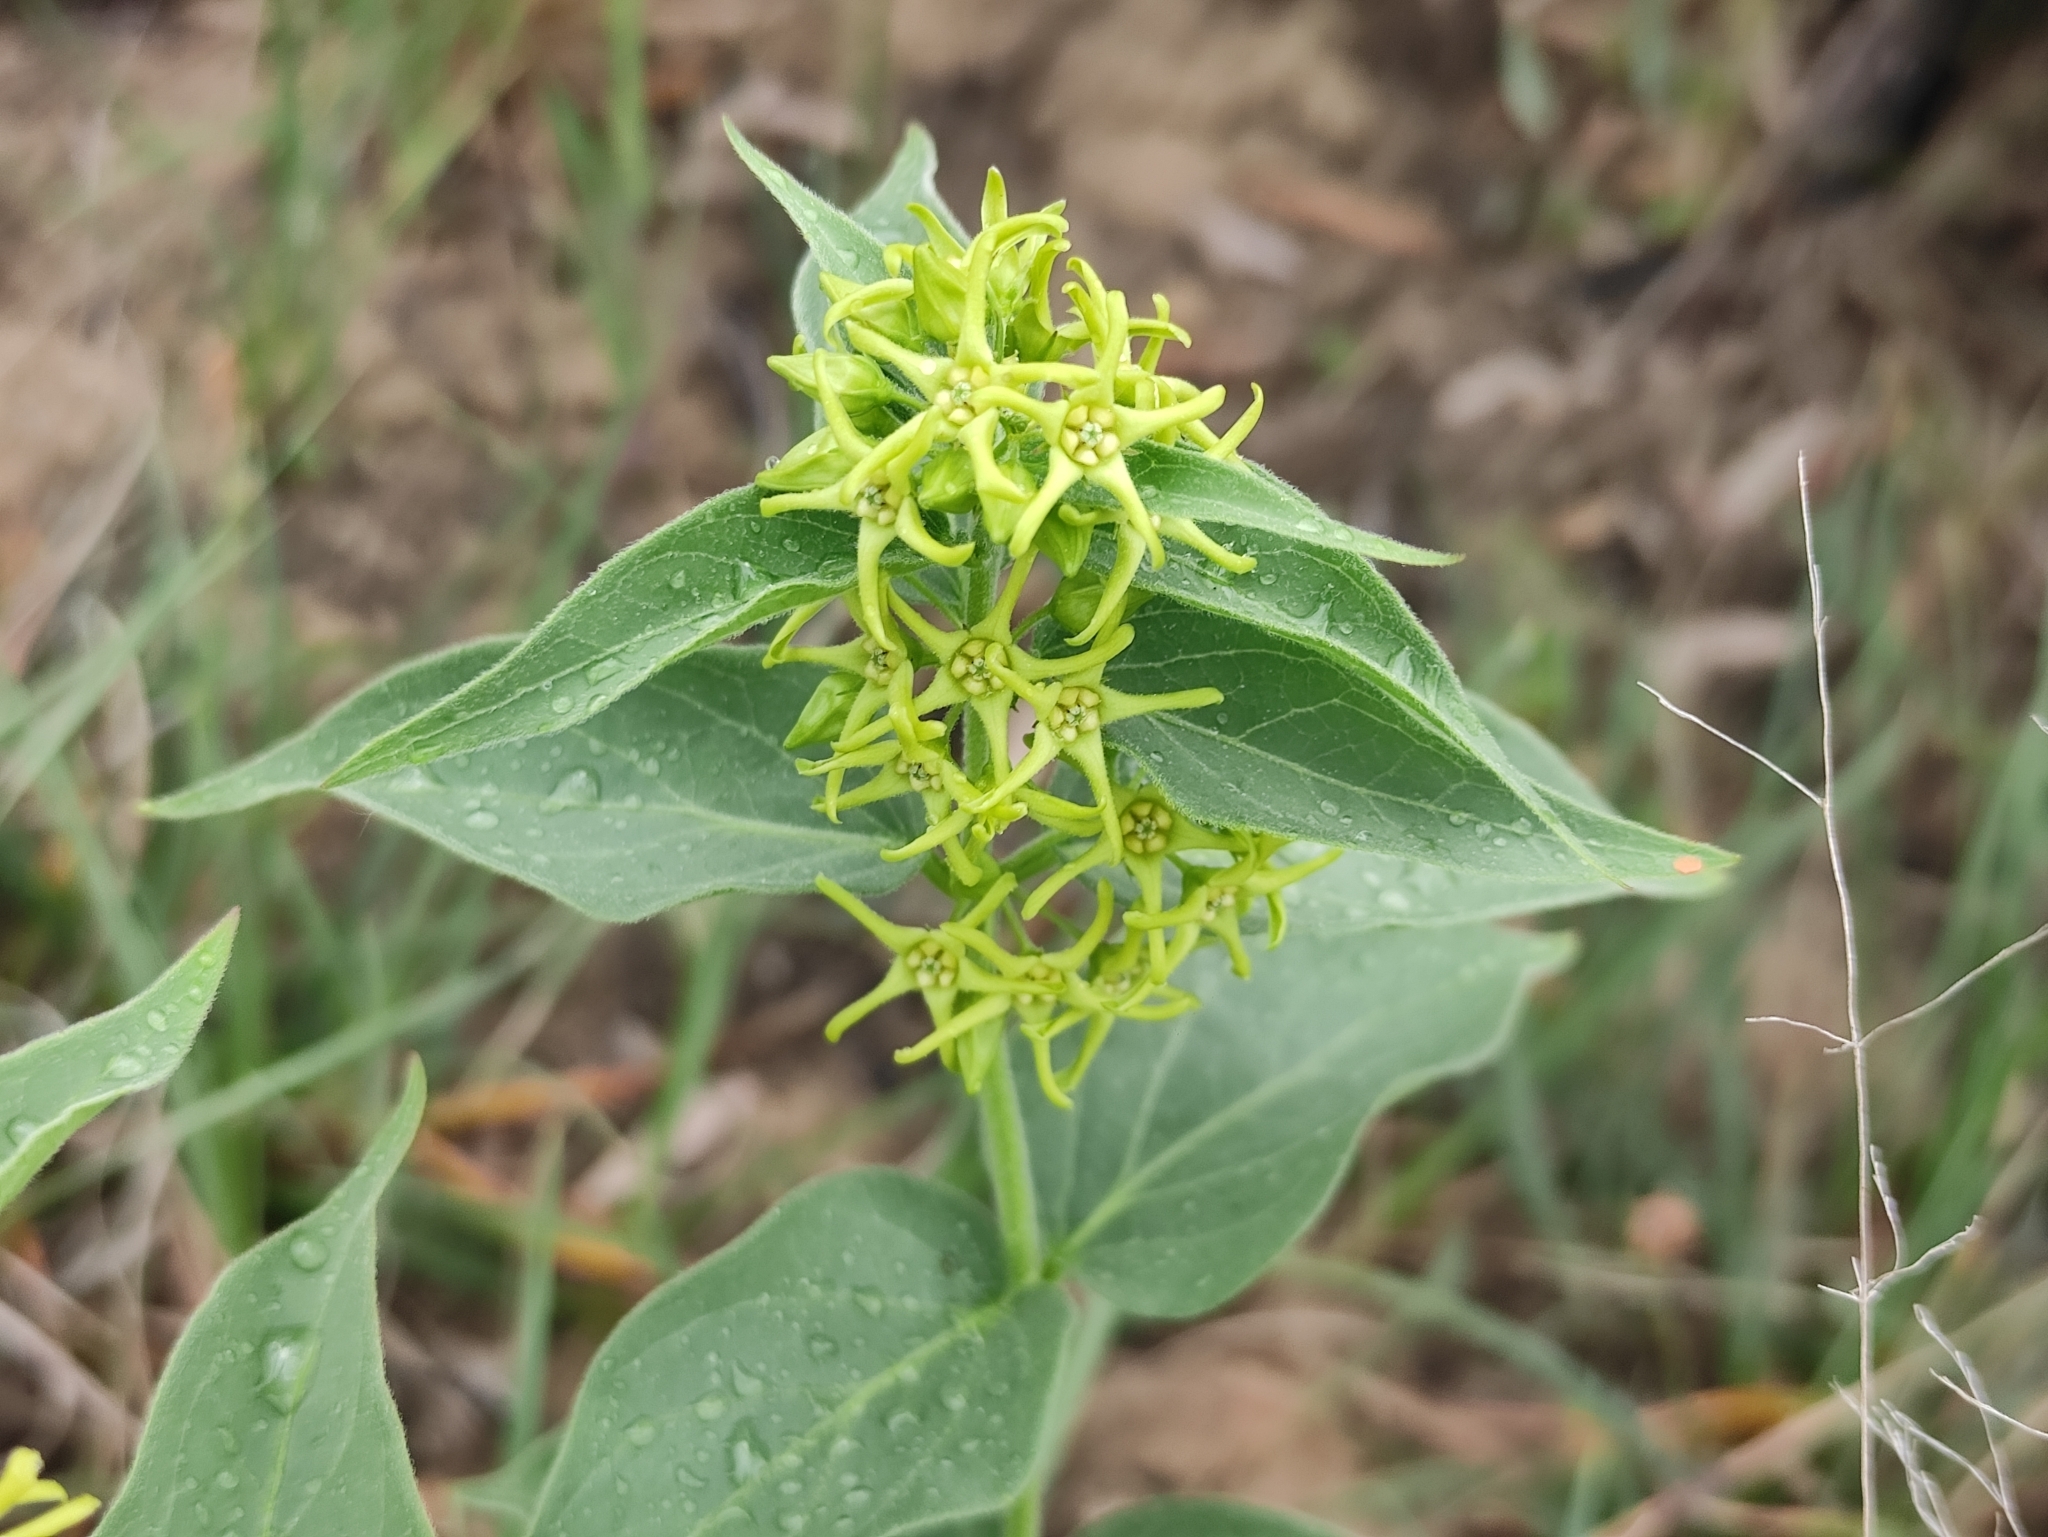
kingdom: Plantae
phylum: Tracheophyta
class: Magnoliopsida
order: Gentianales
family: Apocynaceae
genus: Vincetoxicum
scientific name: Vincetoxicum hirundinaria
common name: White swallowwort
